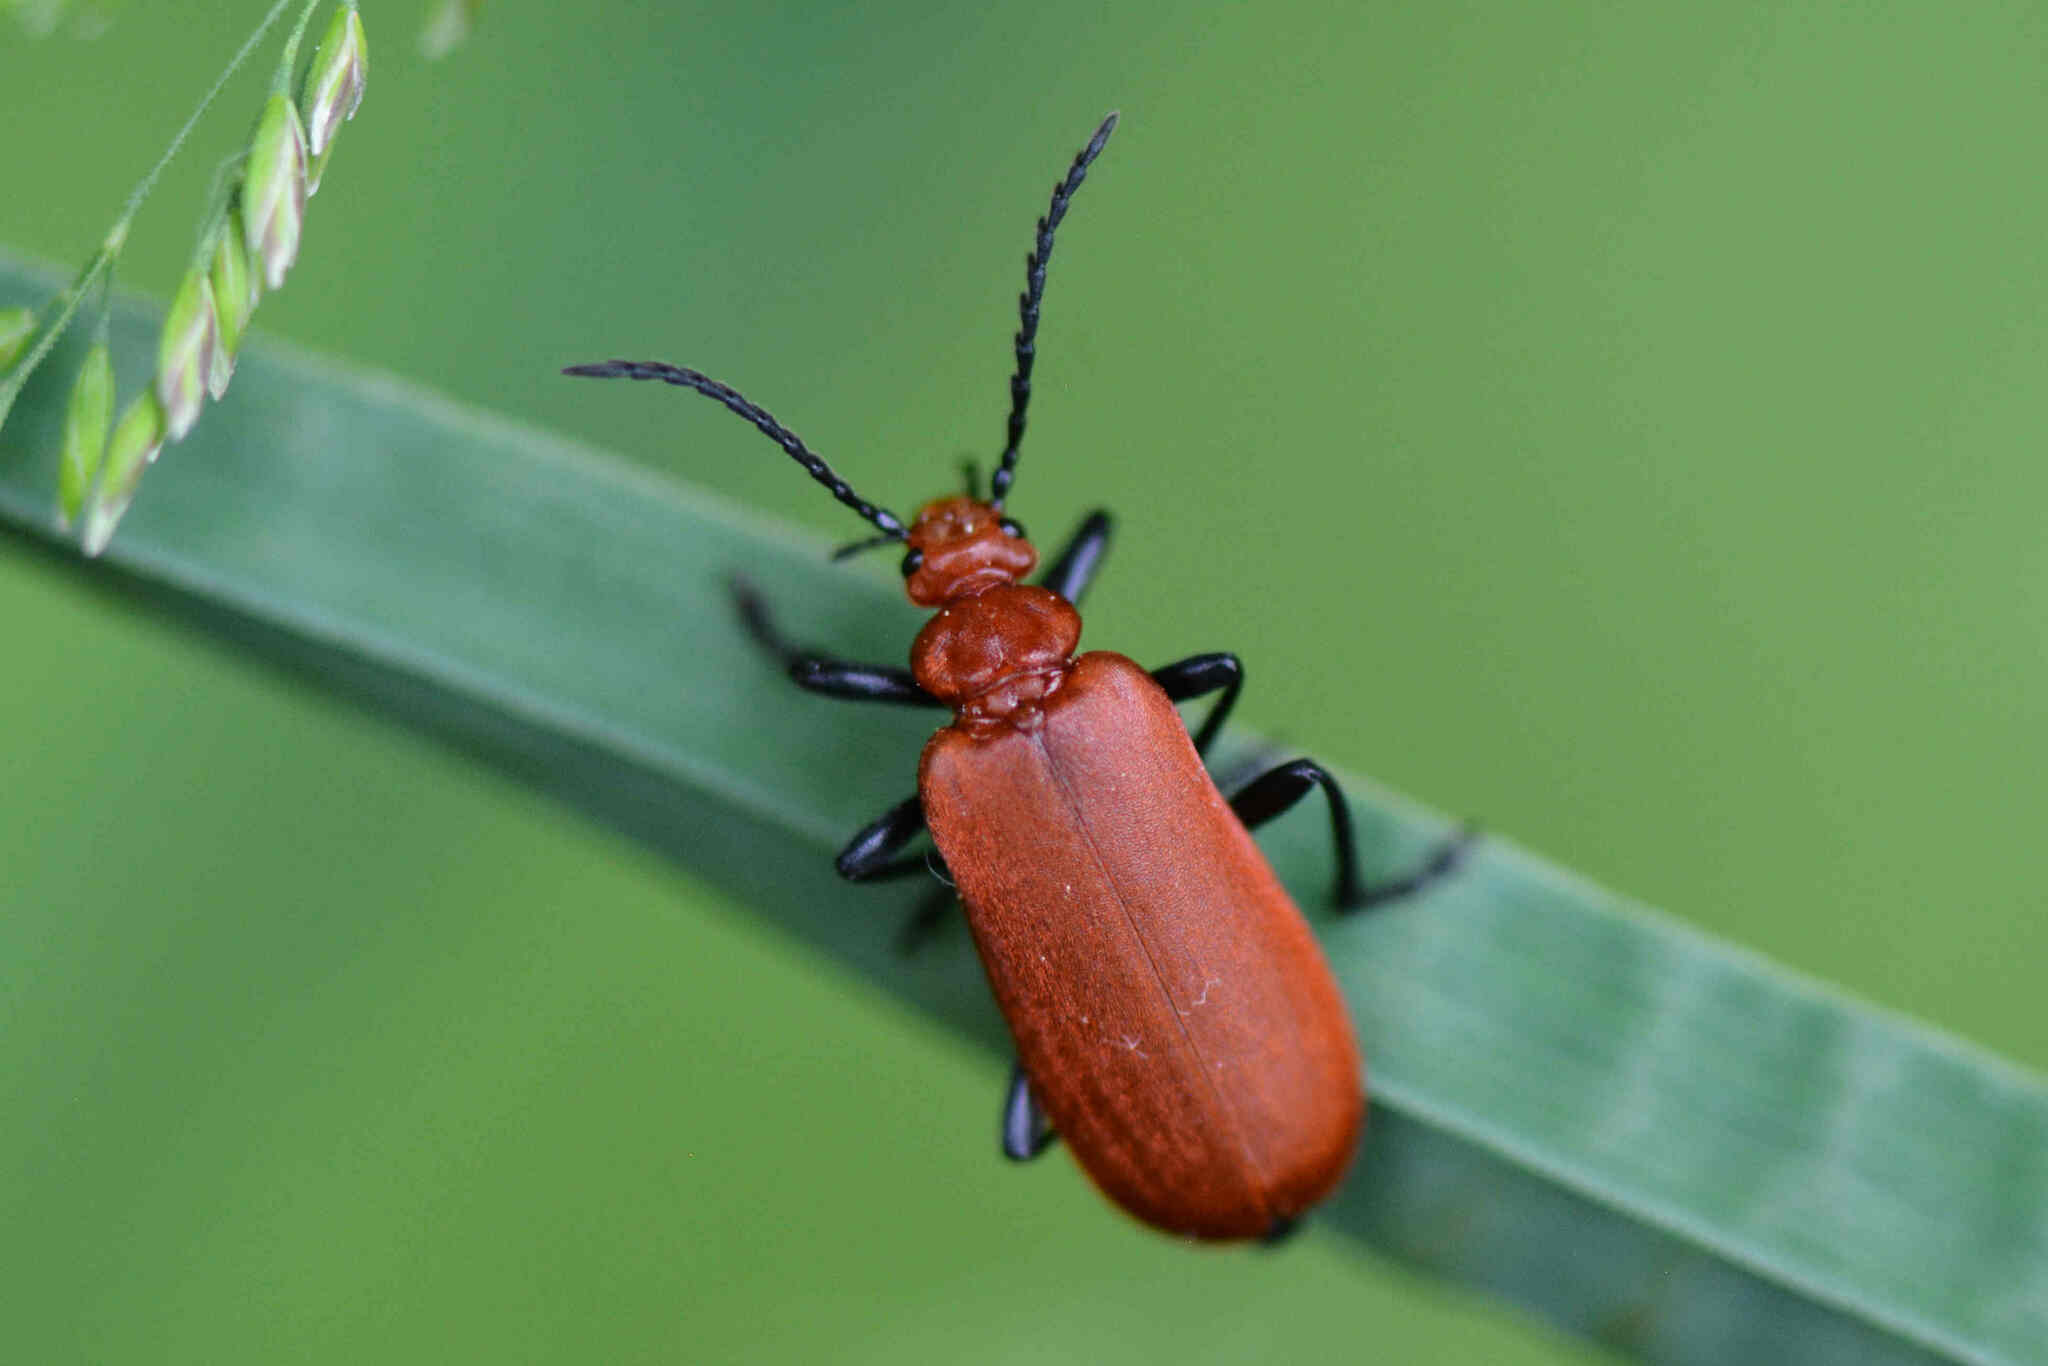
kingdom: Animalia
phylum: Arthropoda
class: Insecta
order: Coleoptera
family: Pyrochroidae
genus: Pyrochroa
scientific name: Pyrochroa serraticornis
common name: Red-headed cardinal beetle
